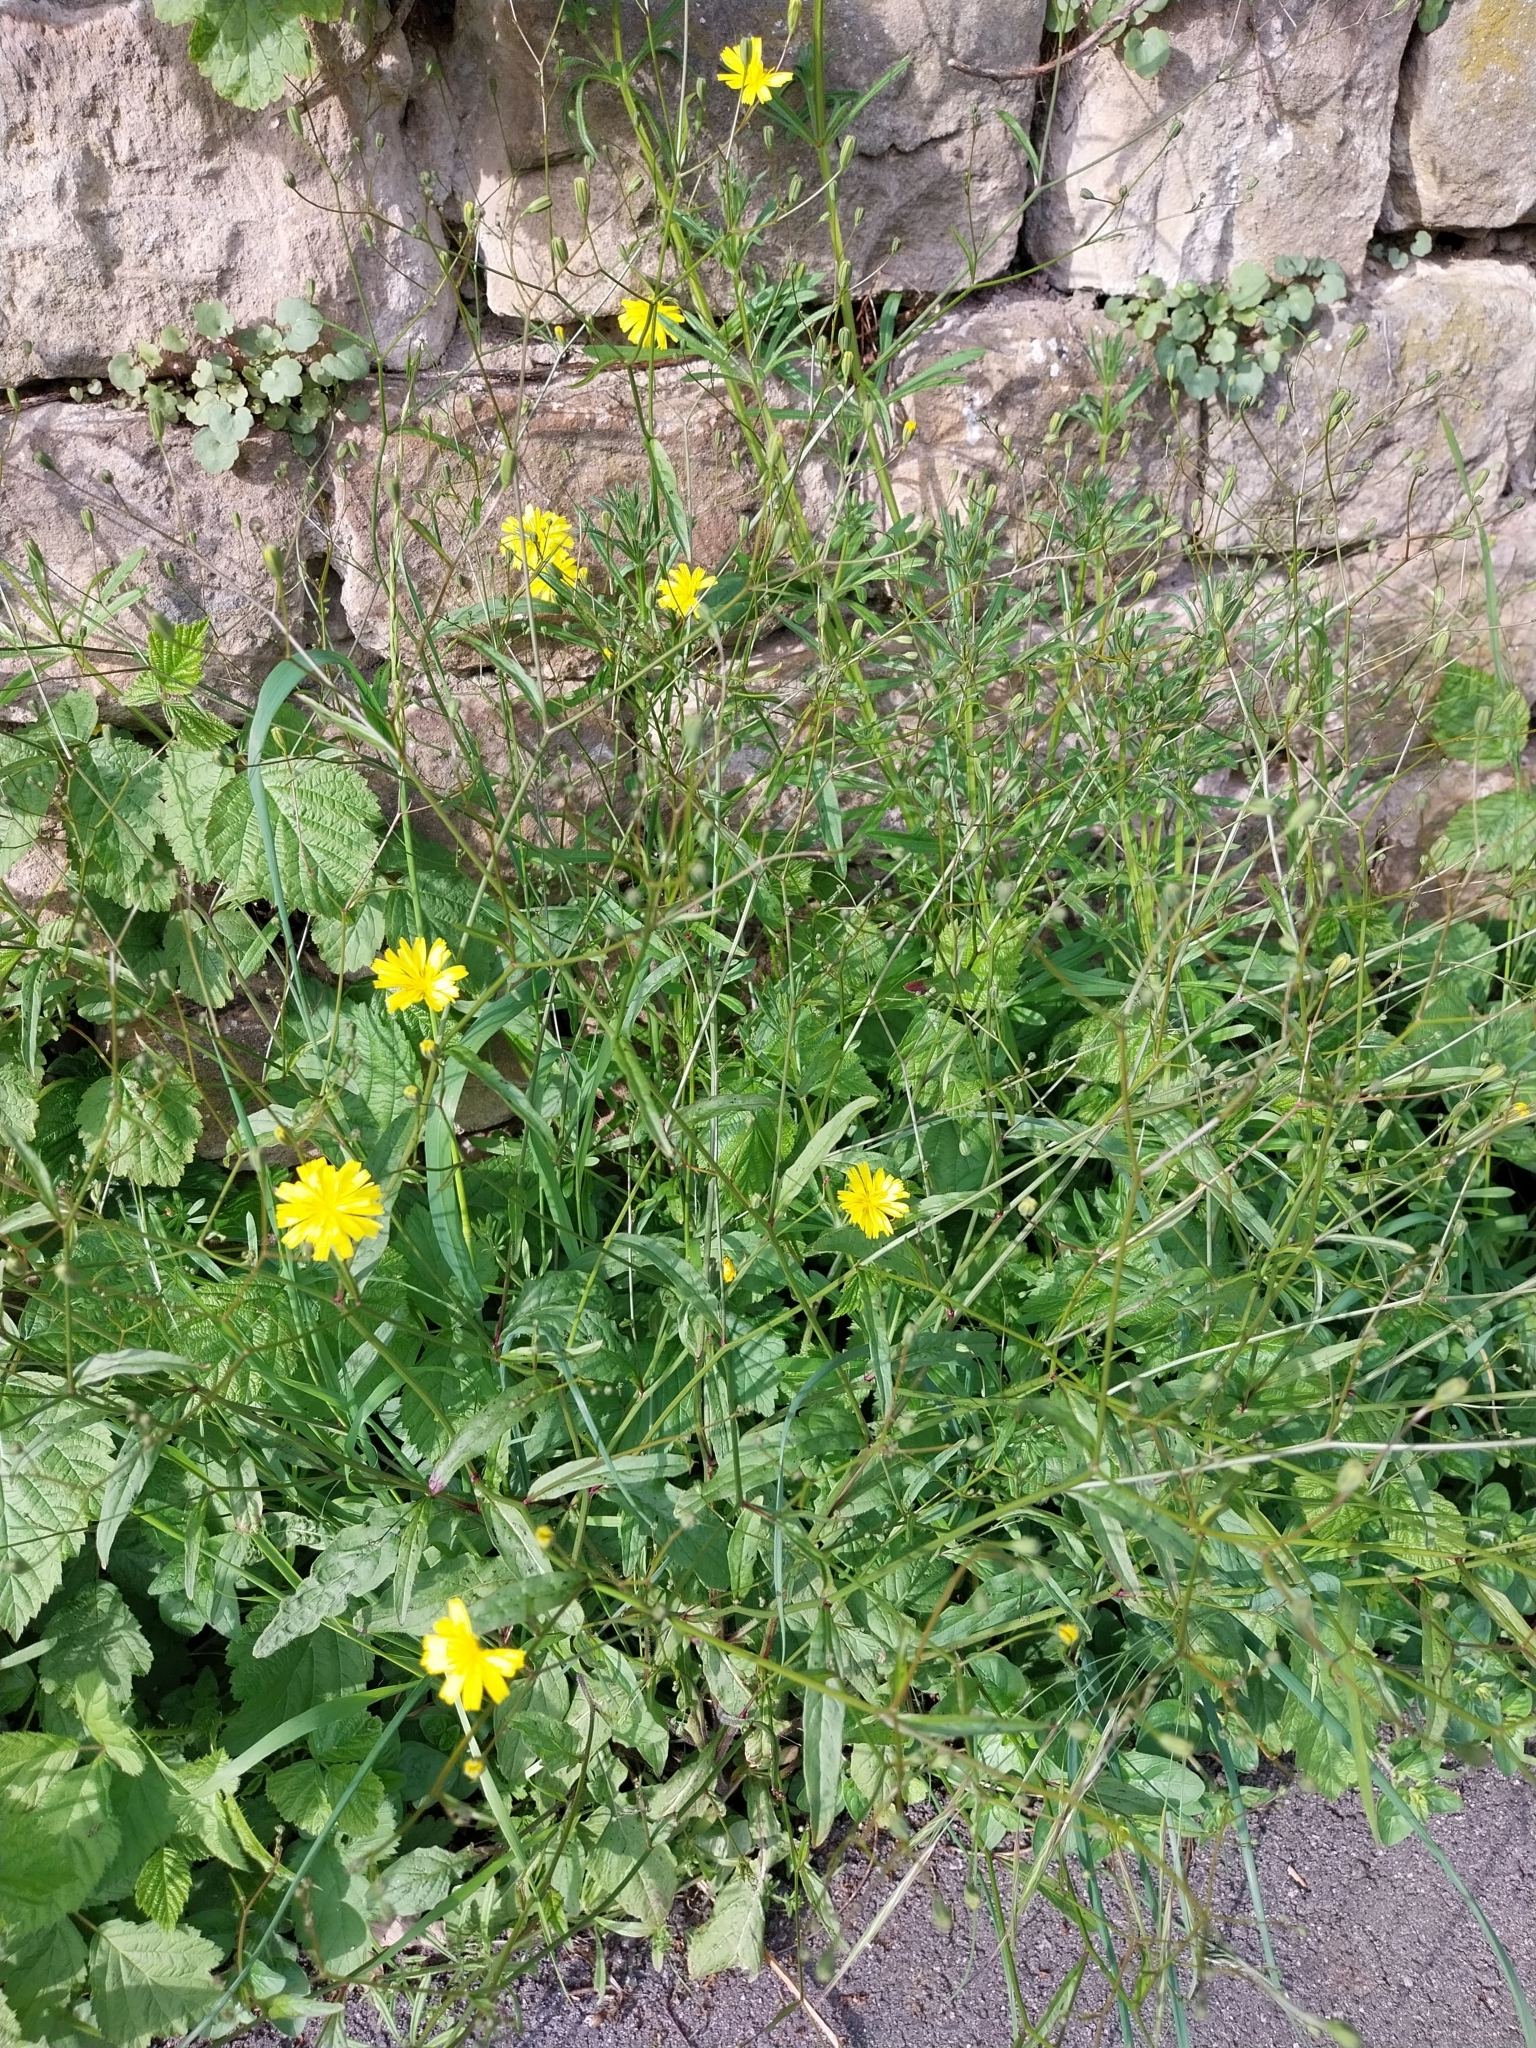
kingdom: Plantae
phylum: Tracheophyta
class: Magnoliopsida
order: Asterales
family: Asteraceae
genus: Lapsana
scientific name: Lapsana communis
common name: Nipplewort
